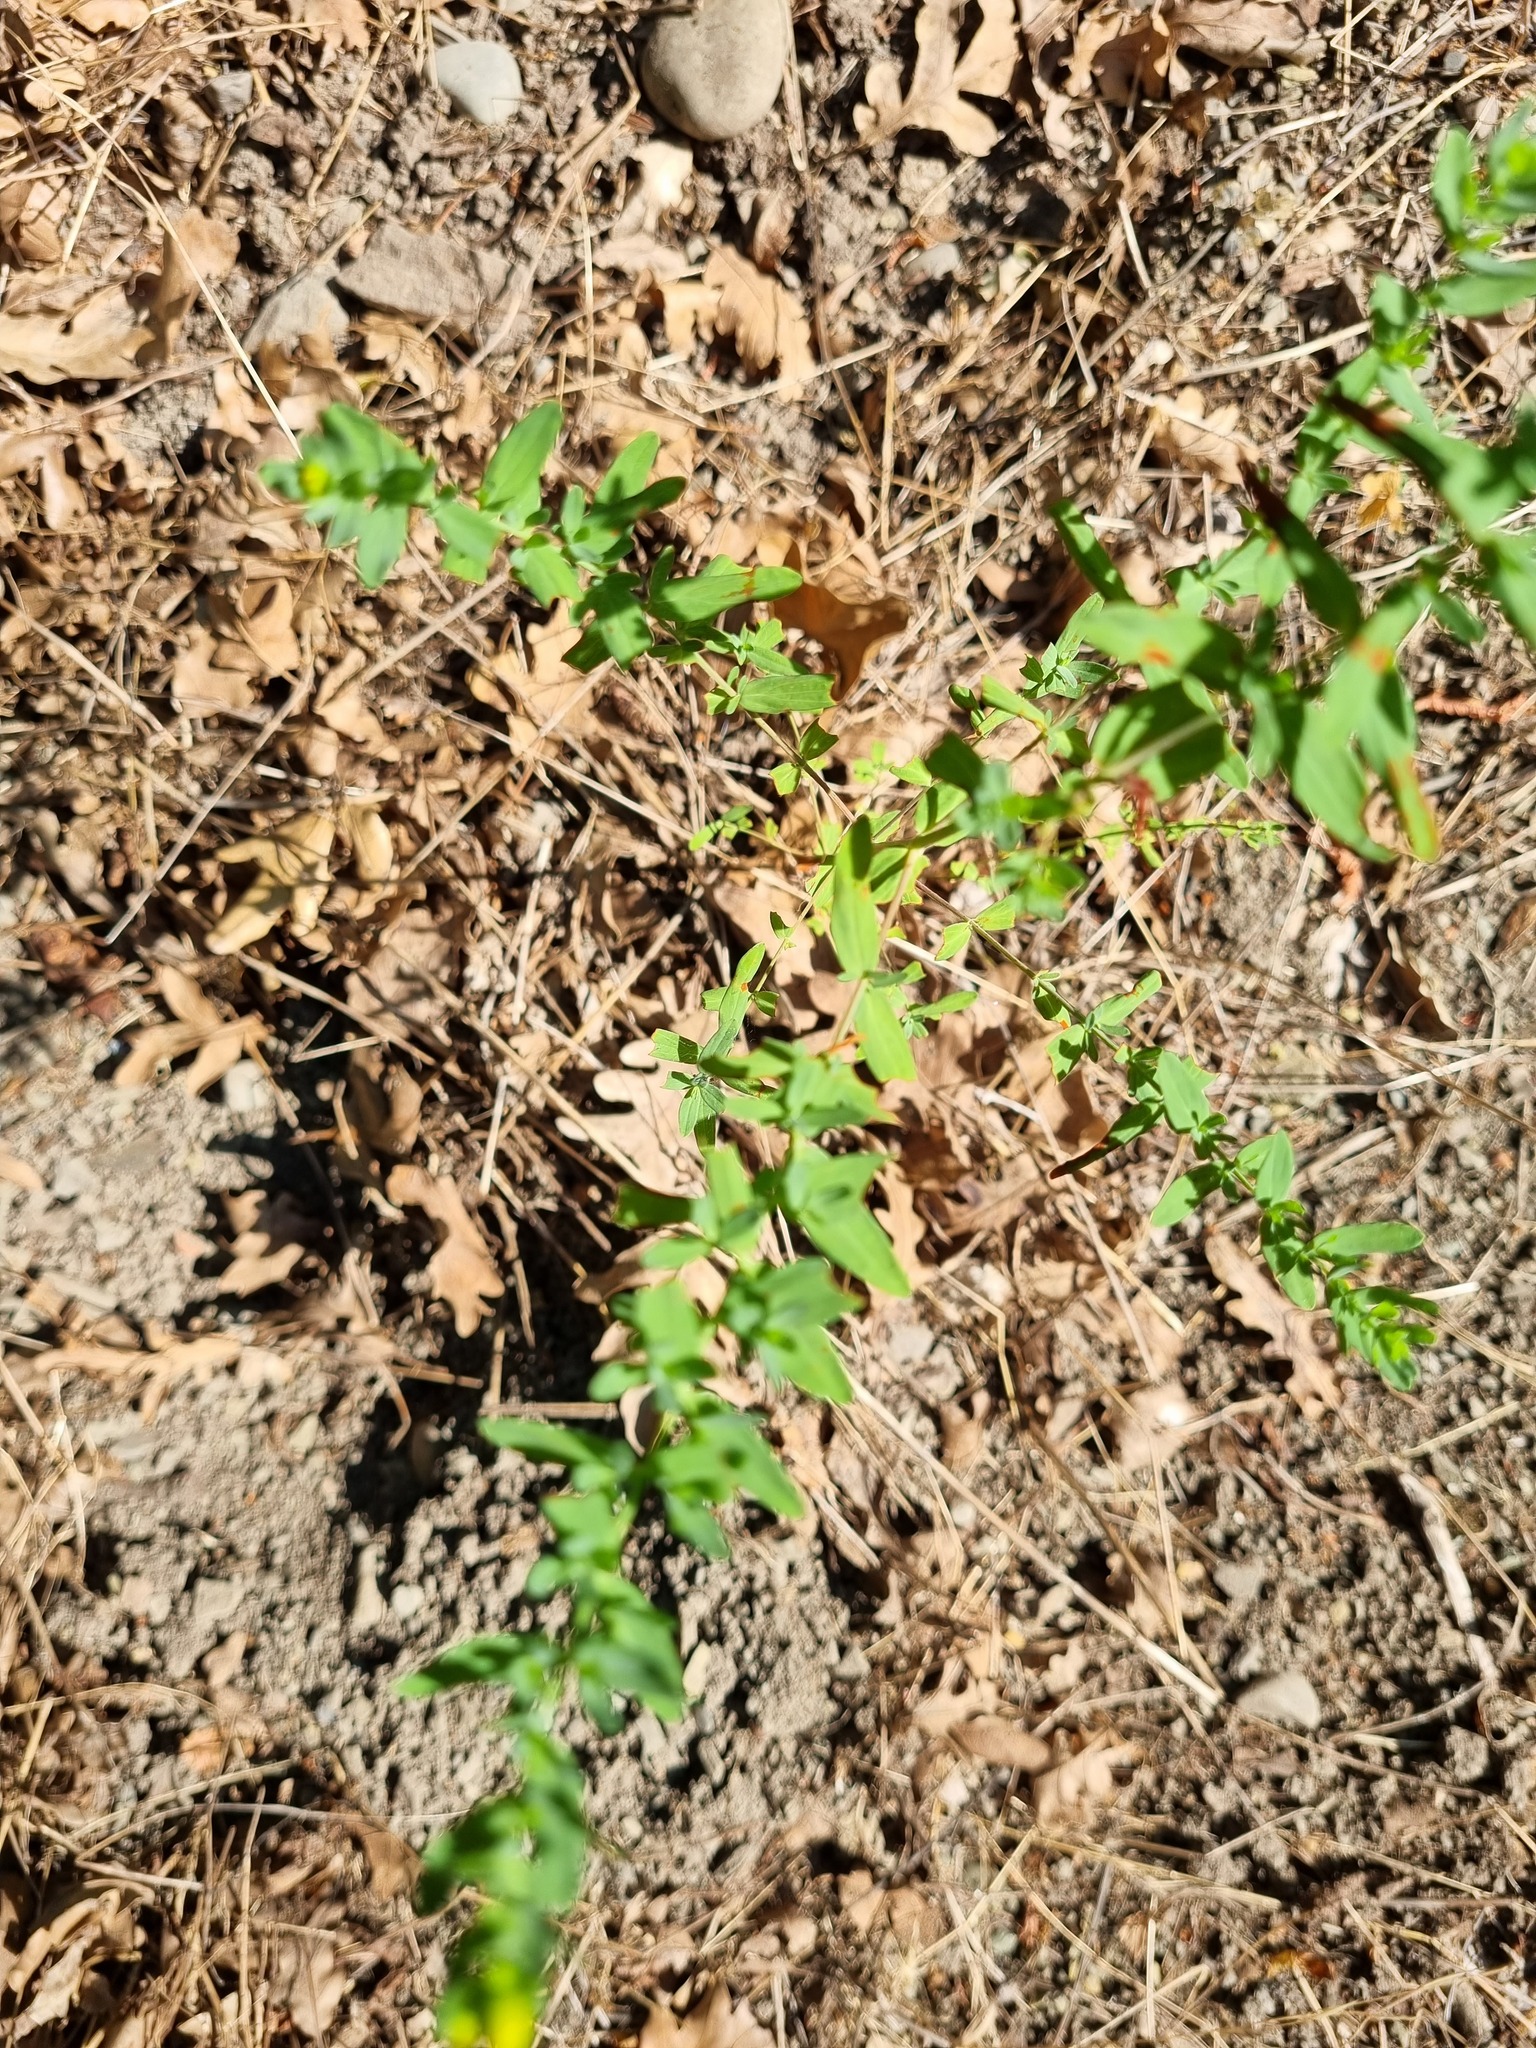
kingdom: Plantae
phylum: Tracheophyta
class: Magnoliopsida
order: Malpighiales
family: Hypericaceae
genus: Hypericum
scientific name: Hypericum perforatum
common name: Common st. johnswort
